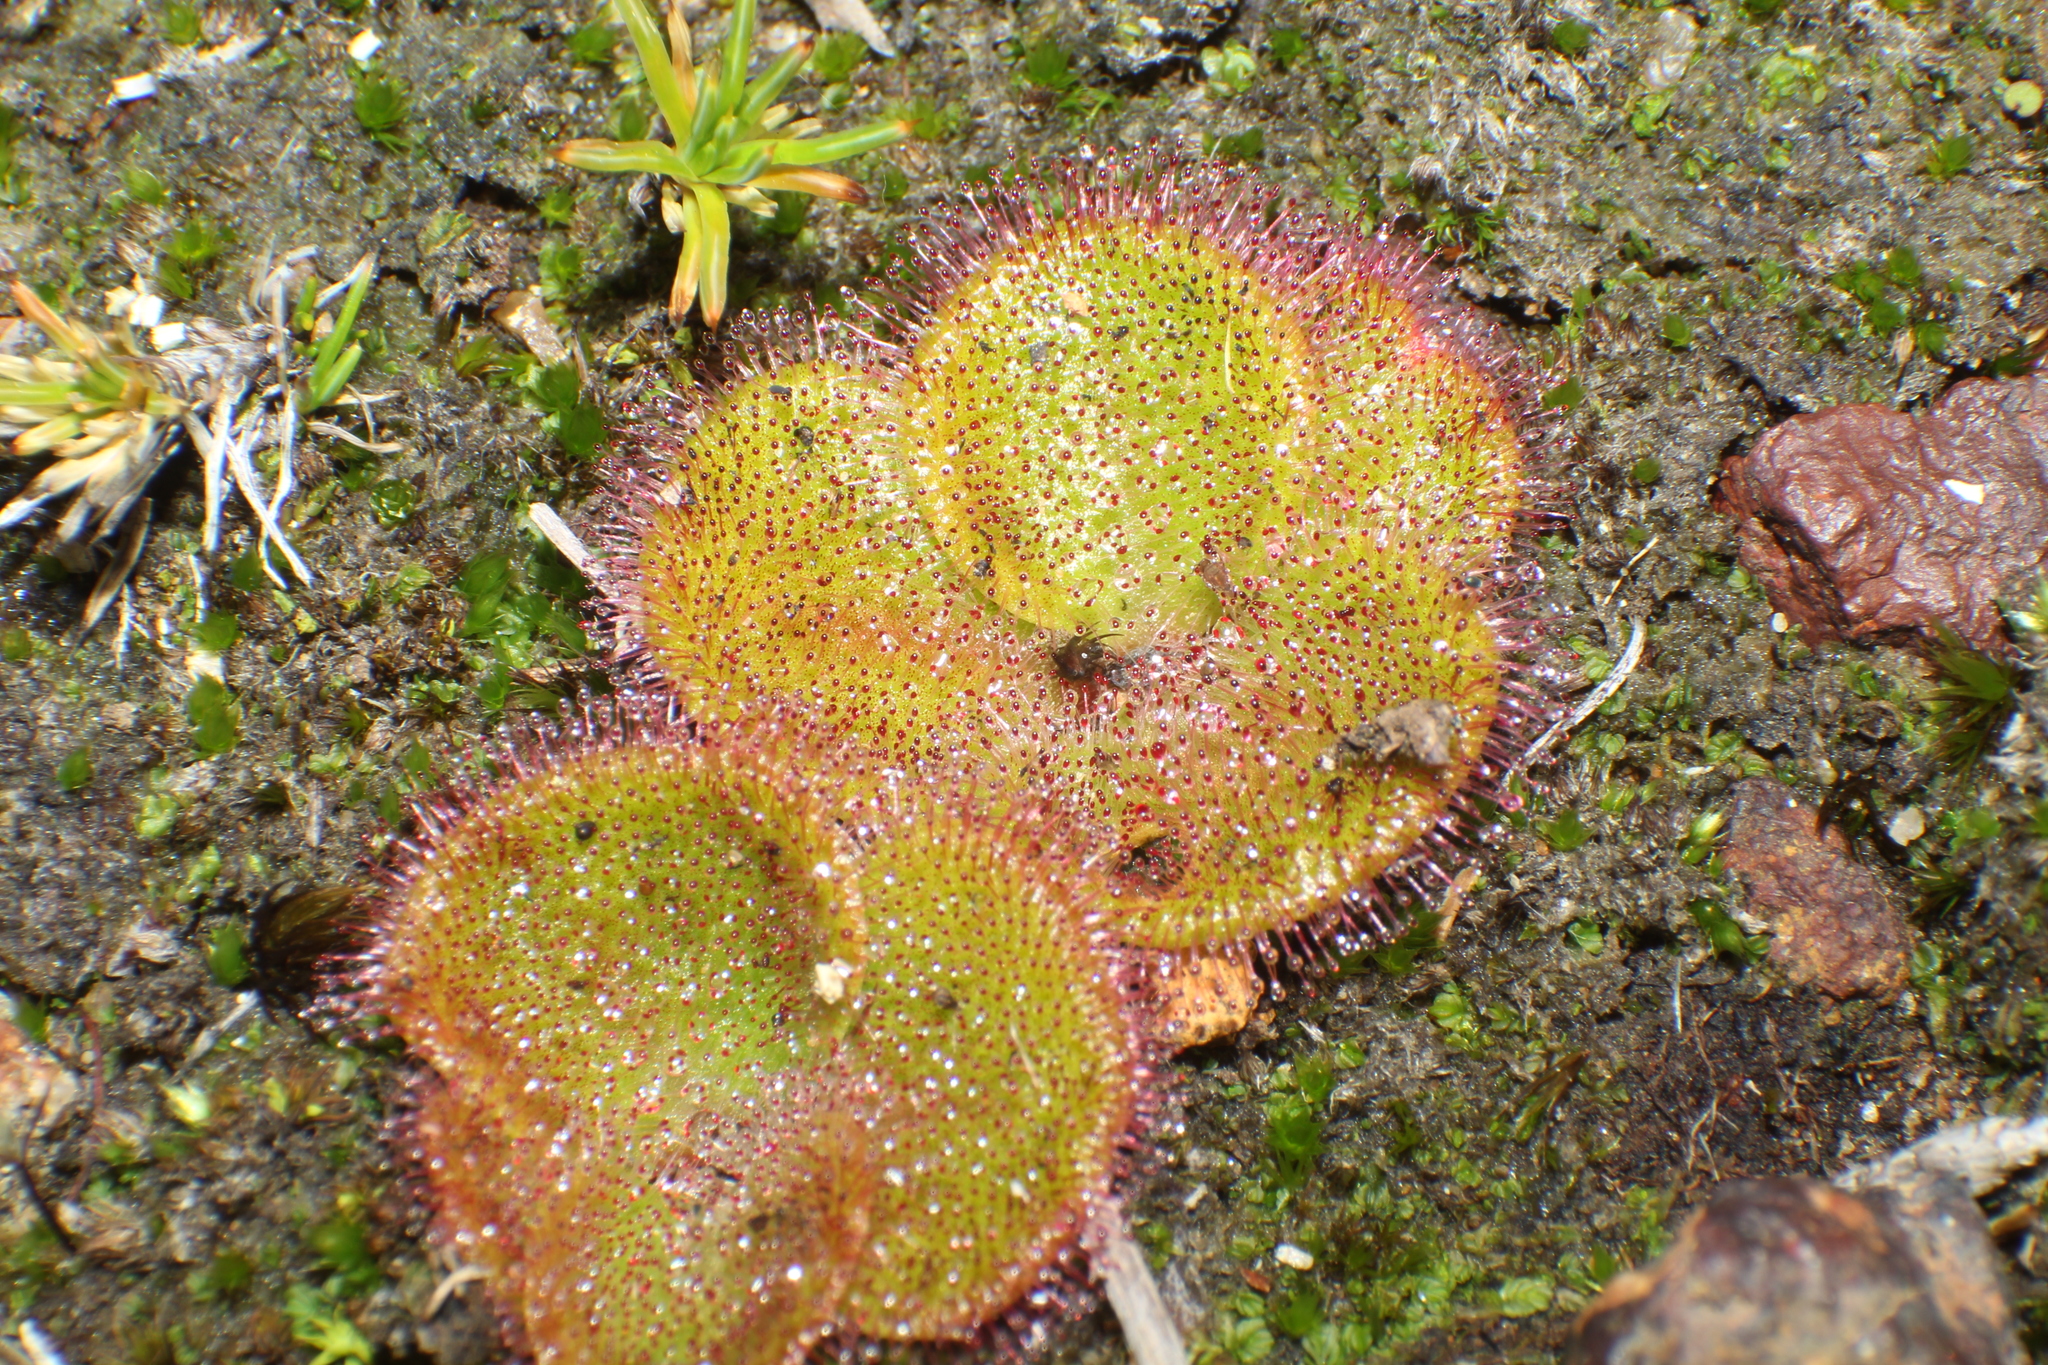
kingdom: Plantae
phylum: Tracheophyta
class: Magnoliopsida
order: Caryophyllales
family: Droseraceae
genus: Drosera
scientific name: Drosera erythrorhiza
